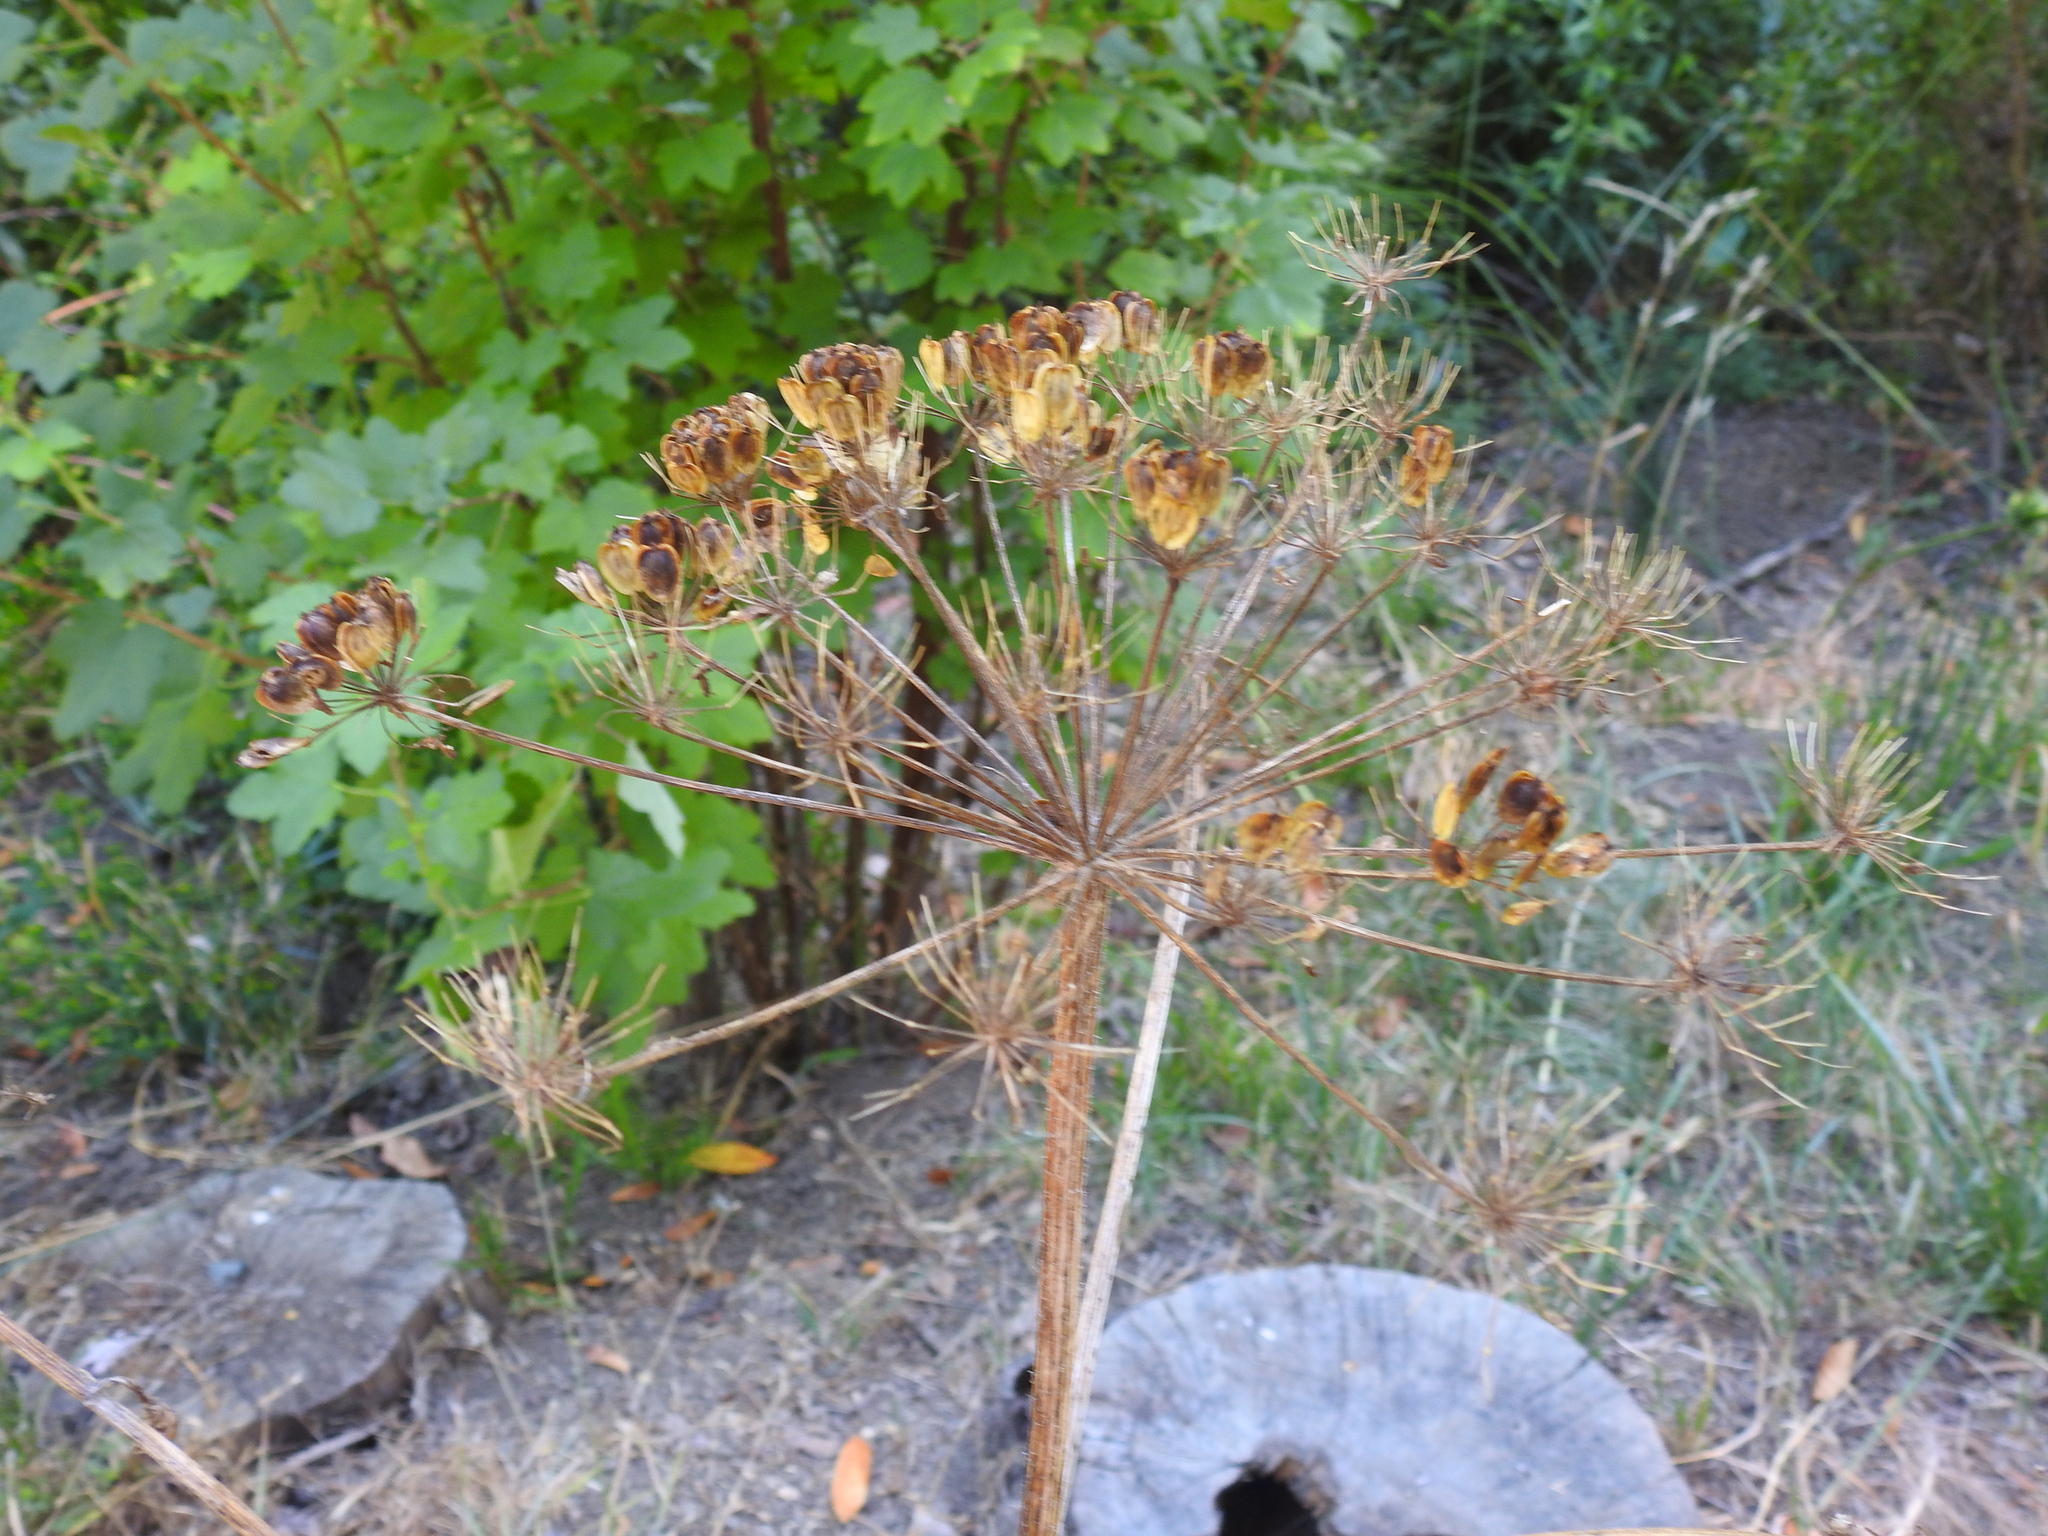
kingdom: Plantae
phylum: Tracheophyta
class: Magnoliopsida
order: Apiales
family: Apiaceae
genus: Heracleum
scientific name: Heracleum maximum
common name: American cow parsnip
